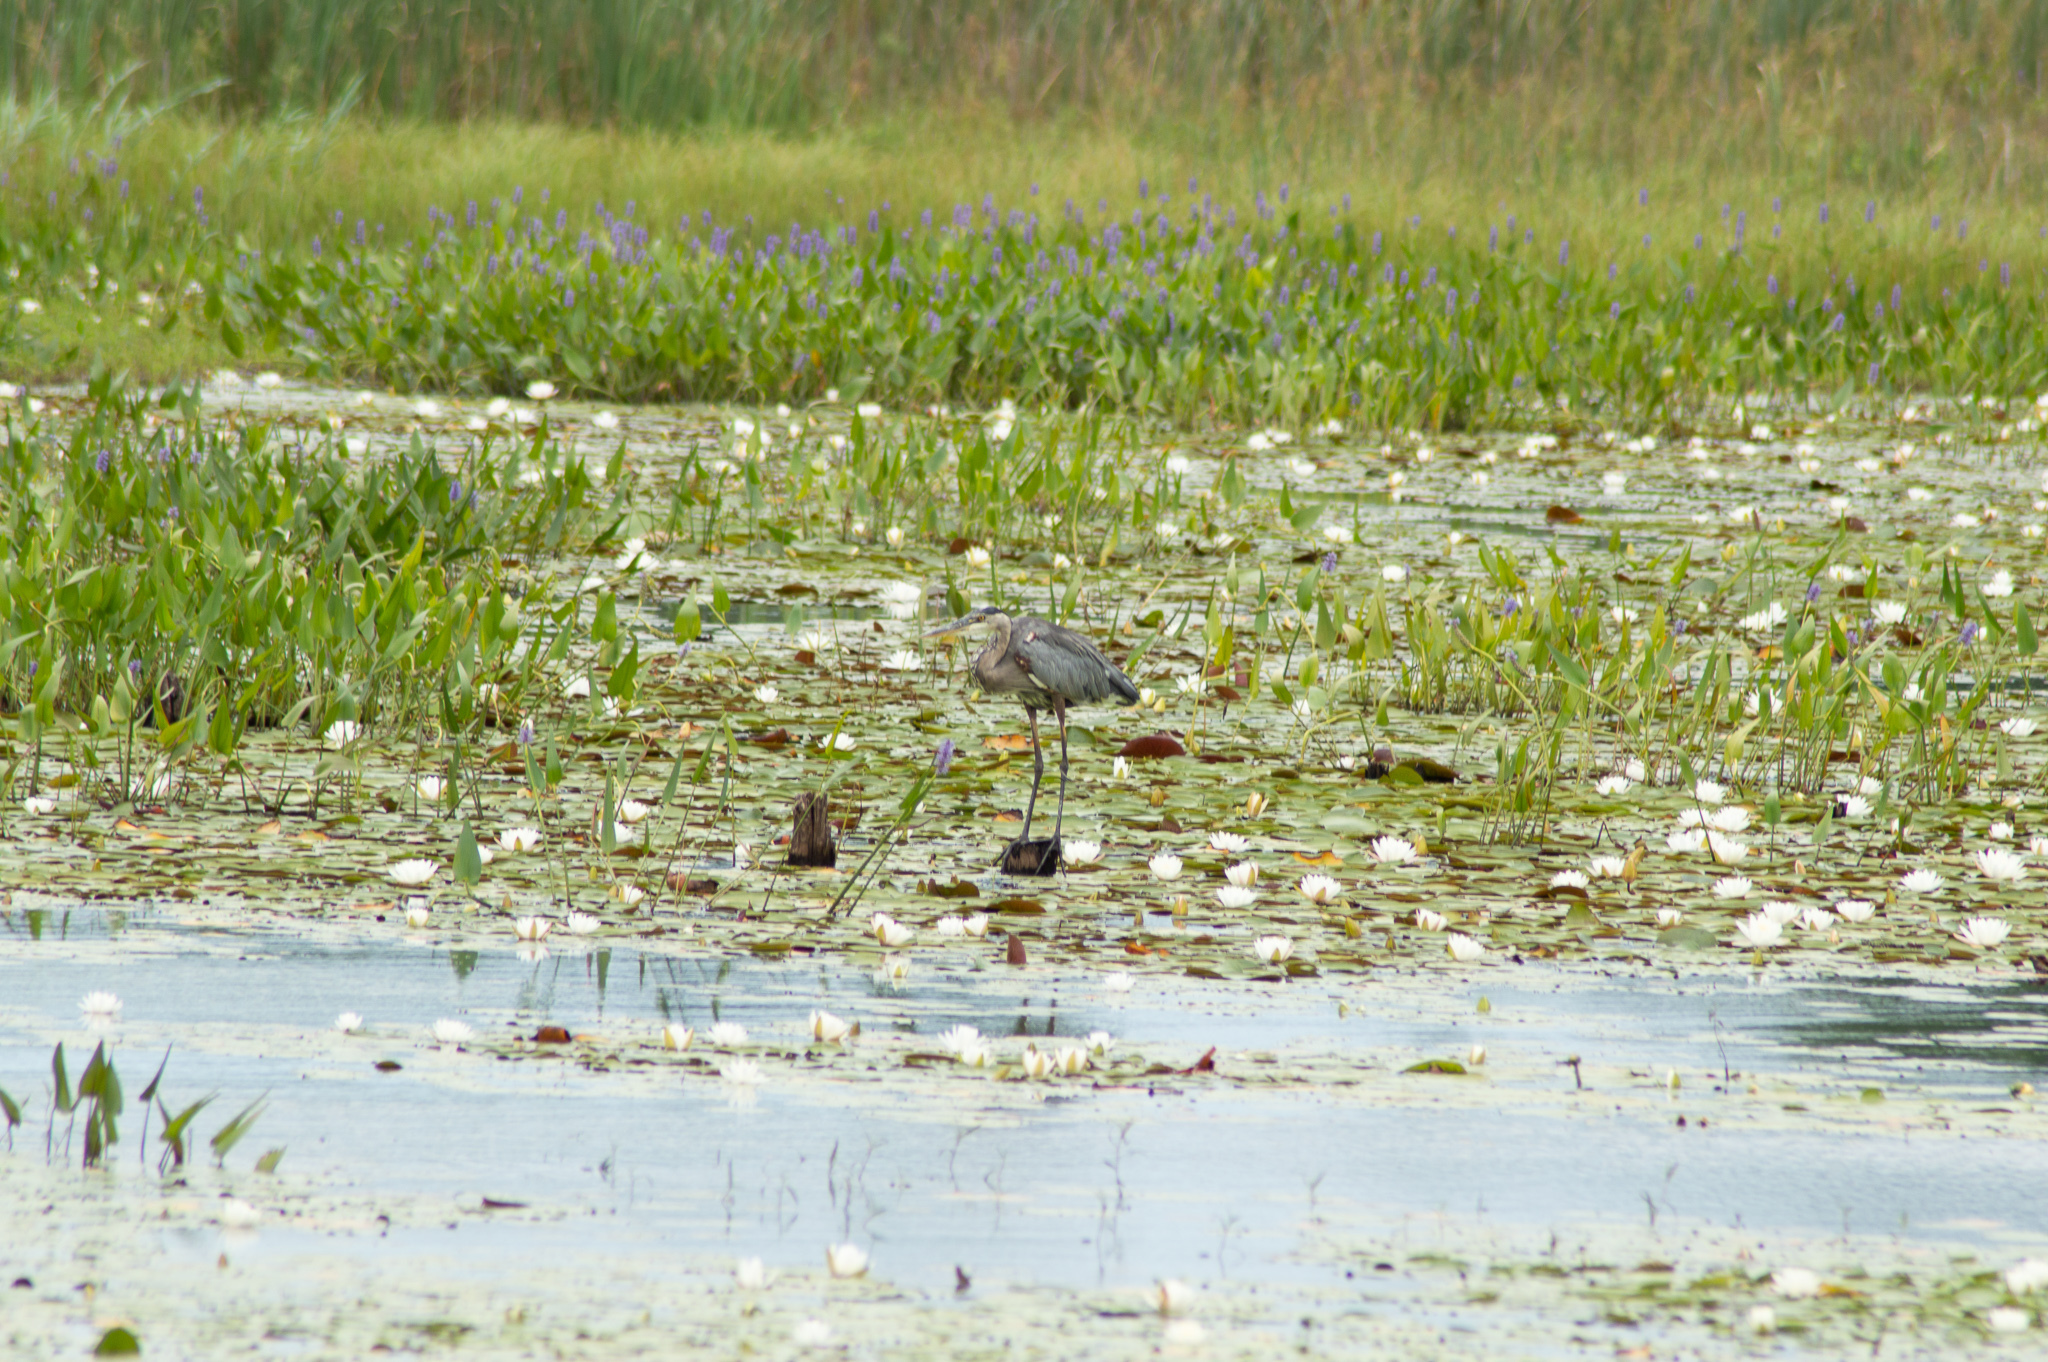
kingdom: Animalia
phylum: Chordata
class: Aves
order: Pelecaniformes
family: Ardeidae
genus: Ardea
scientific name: Ardea herodias
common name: Great blue heron
